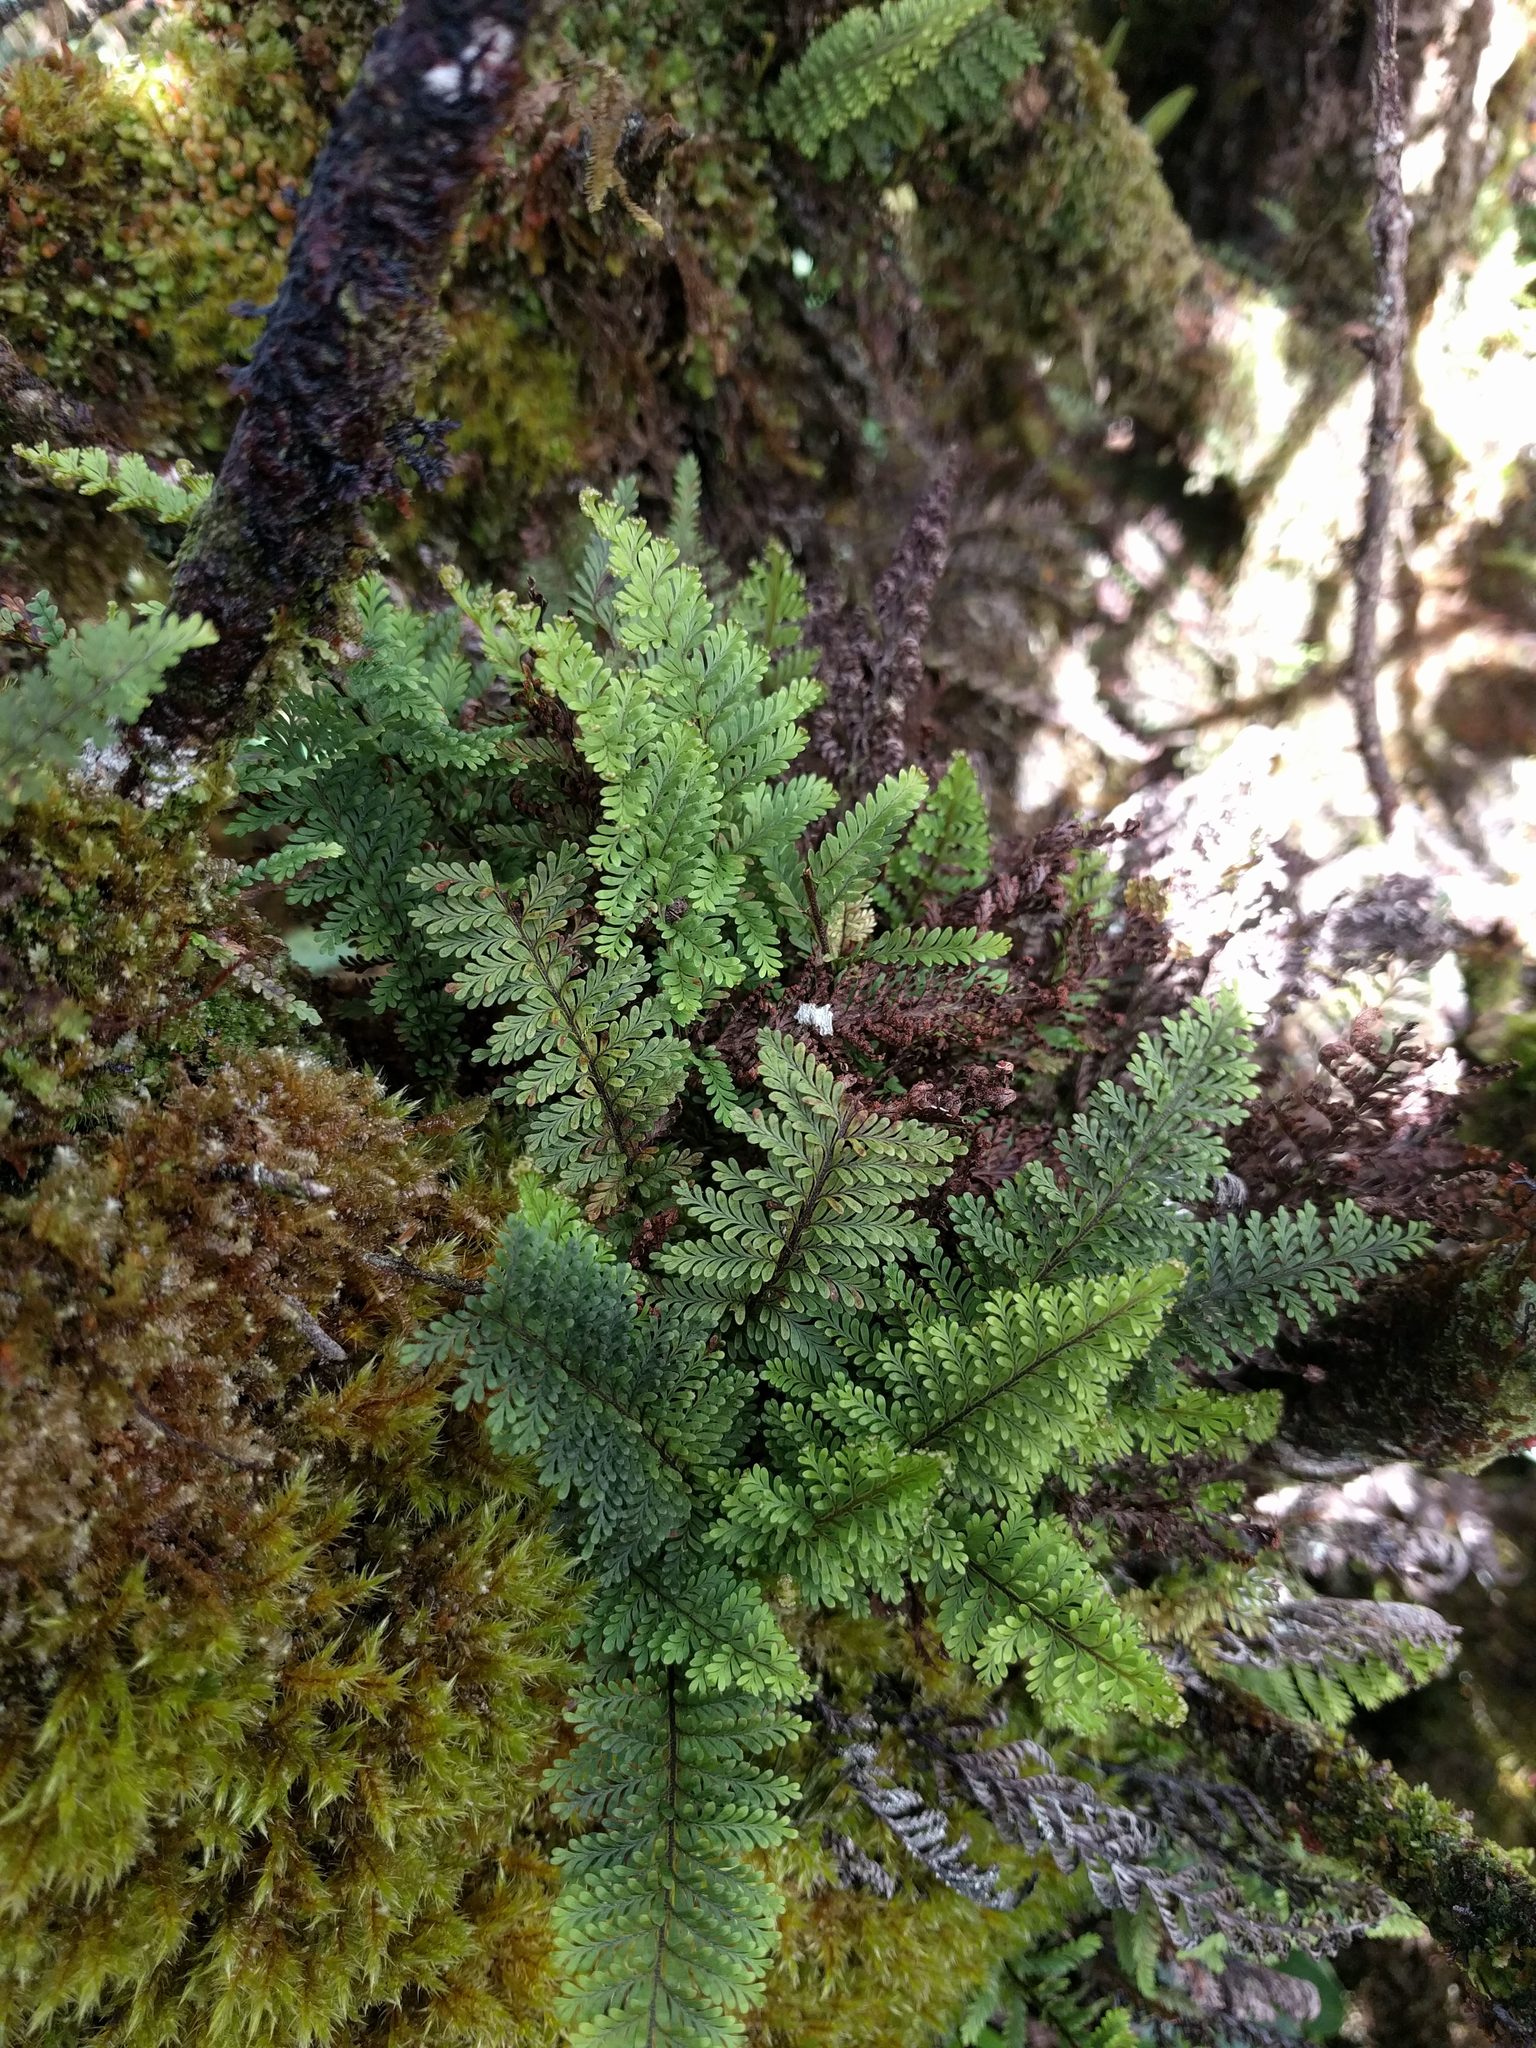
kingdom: Plantae
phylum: Tracheophyta
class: Polypodiopsida
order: Polypodiales
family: Polypodiaceae
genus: Adenophorus
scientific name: Adenophorus tamariscinus
